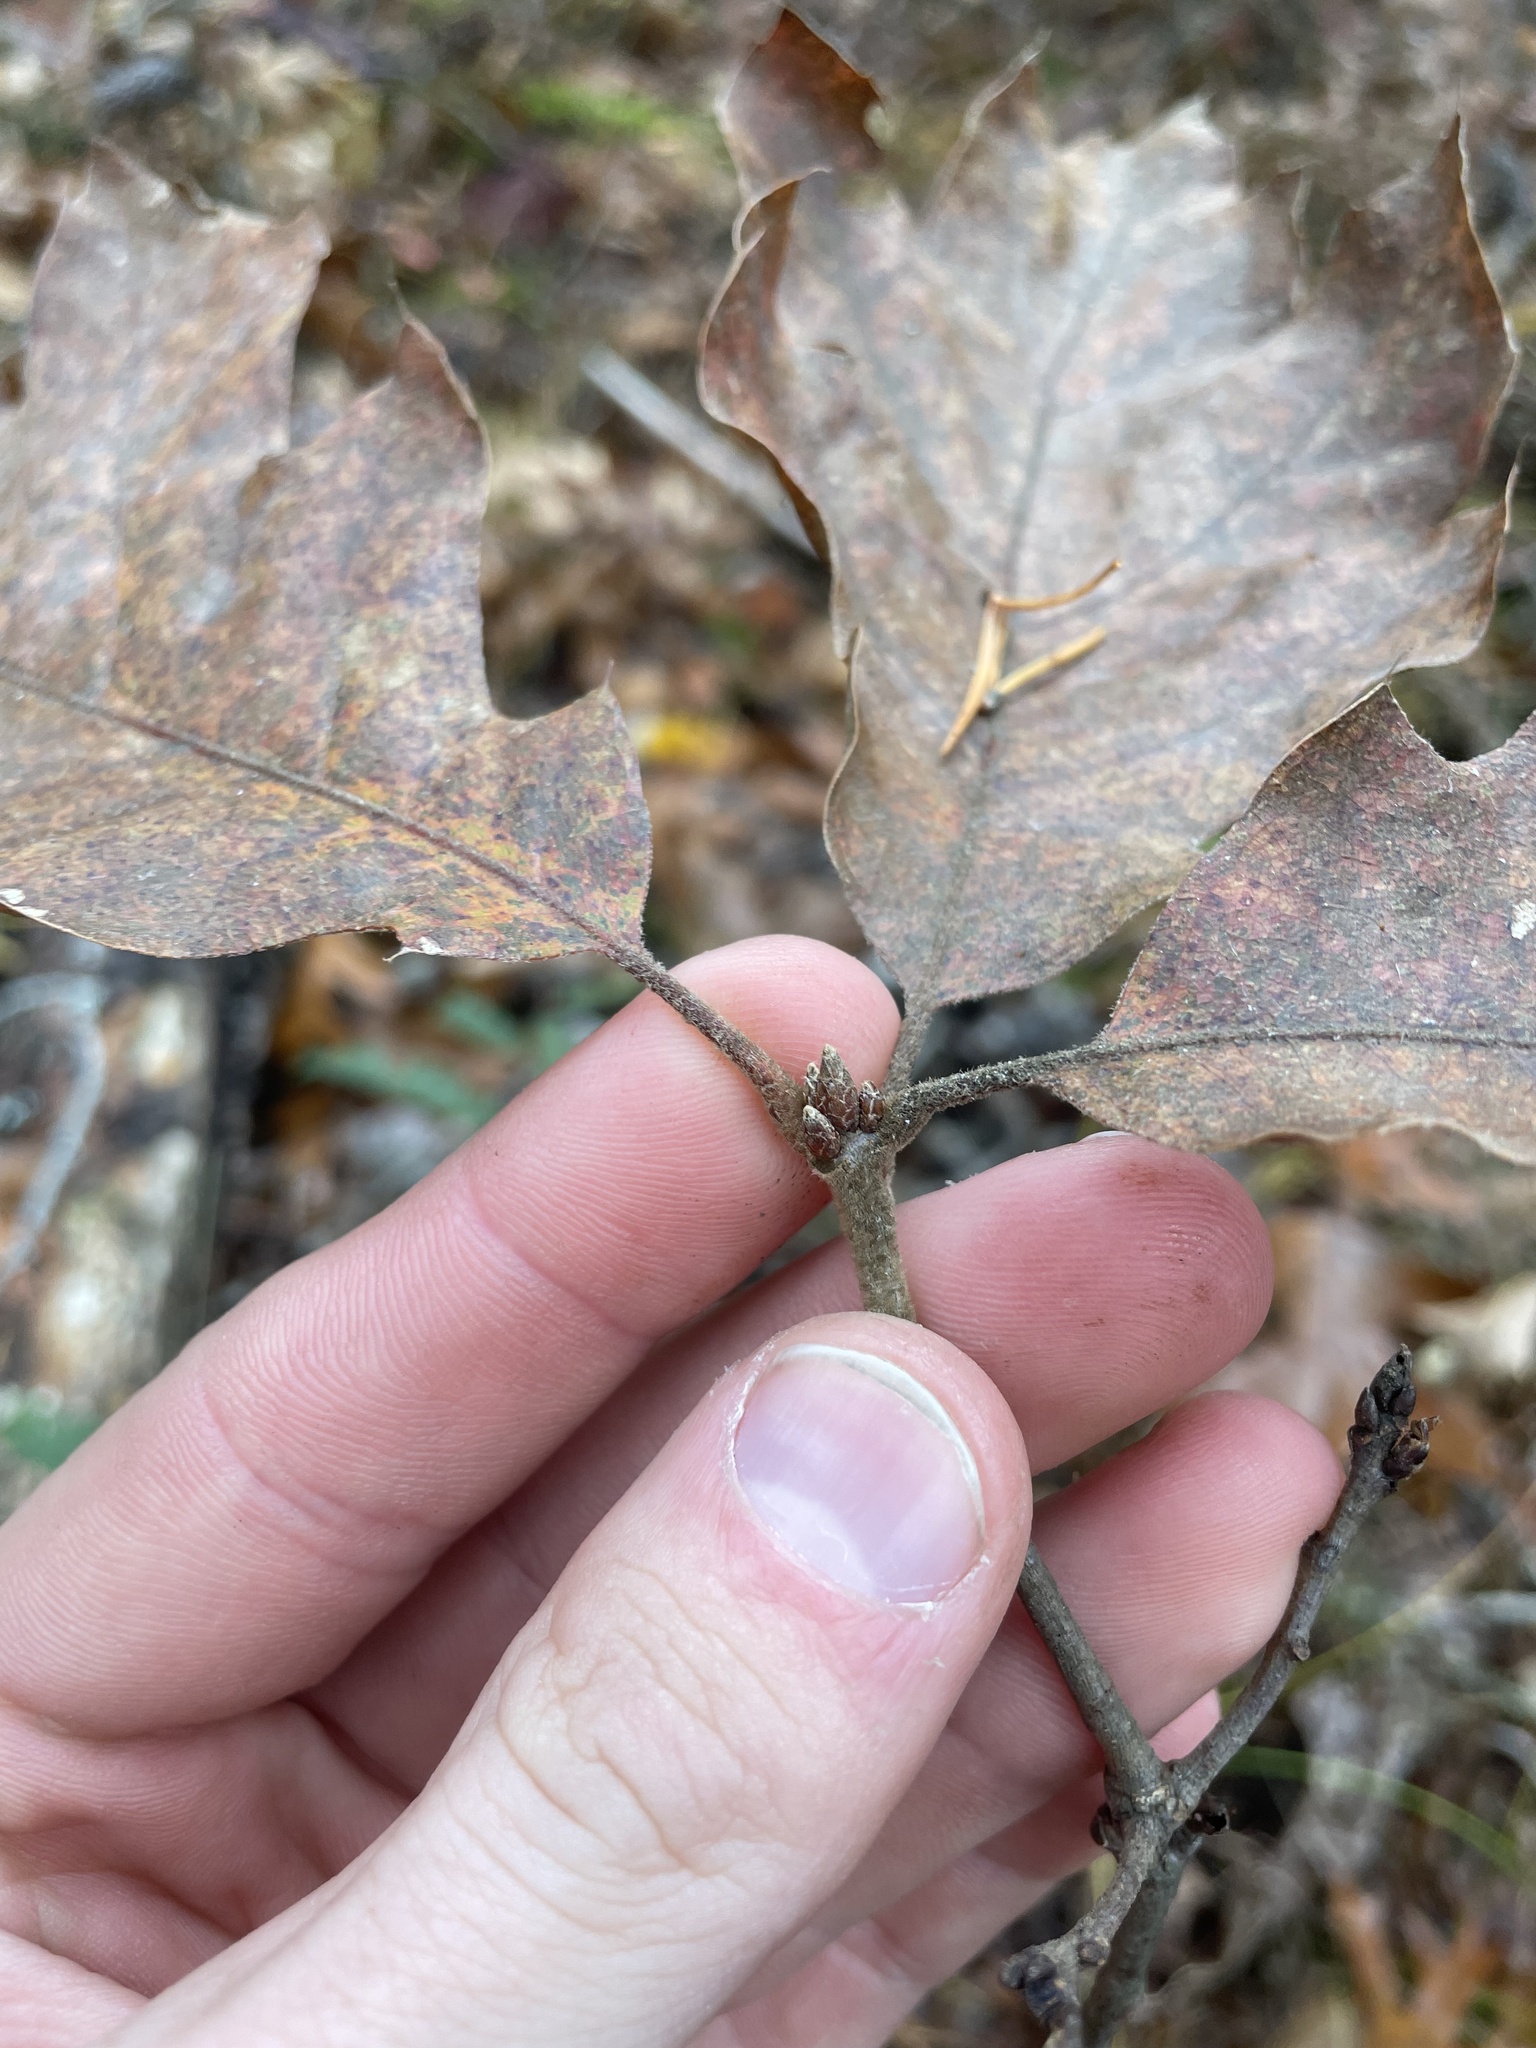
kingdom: Plantae
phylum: Tracheophyta
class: Magnoliopsida
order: Fagales
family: Fagaceae
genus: Quercus
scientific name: Quercus rubra
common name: Red oak
